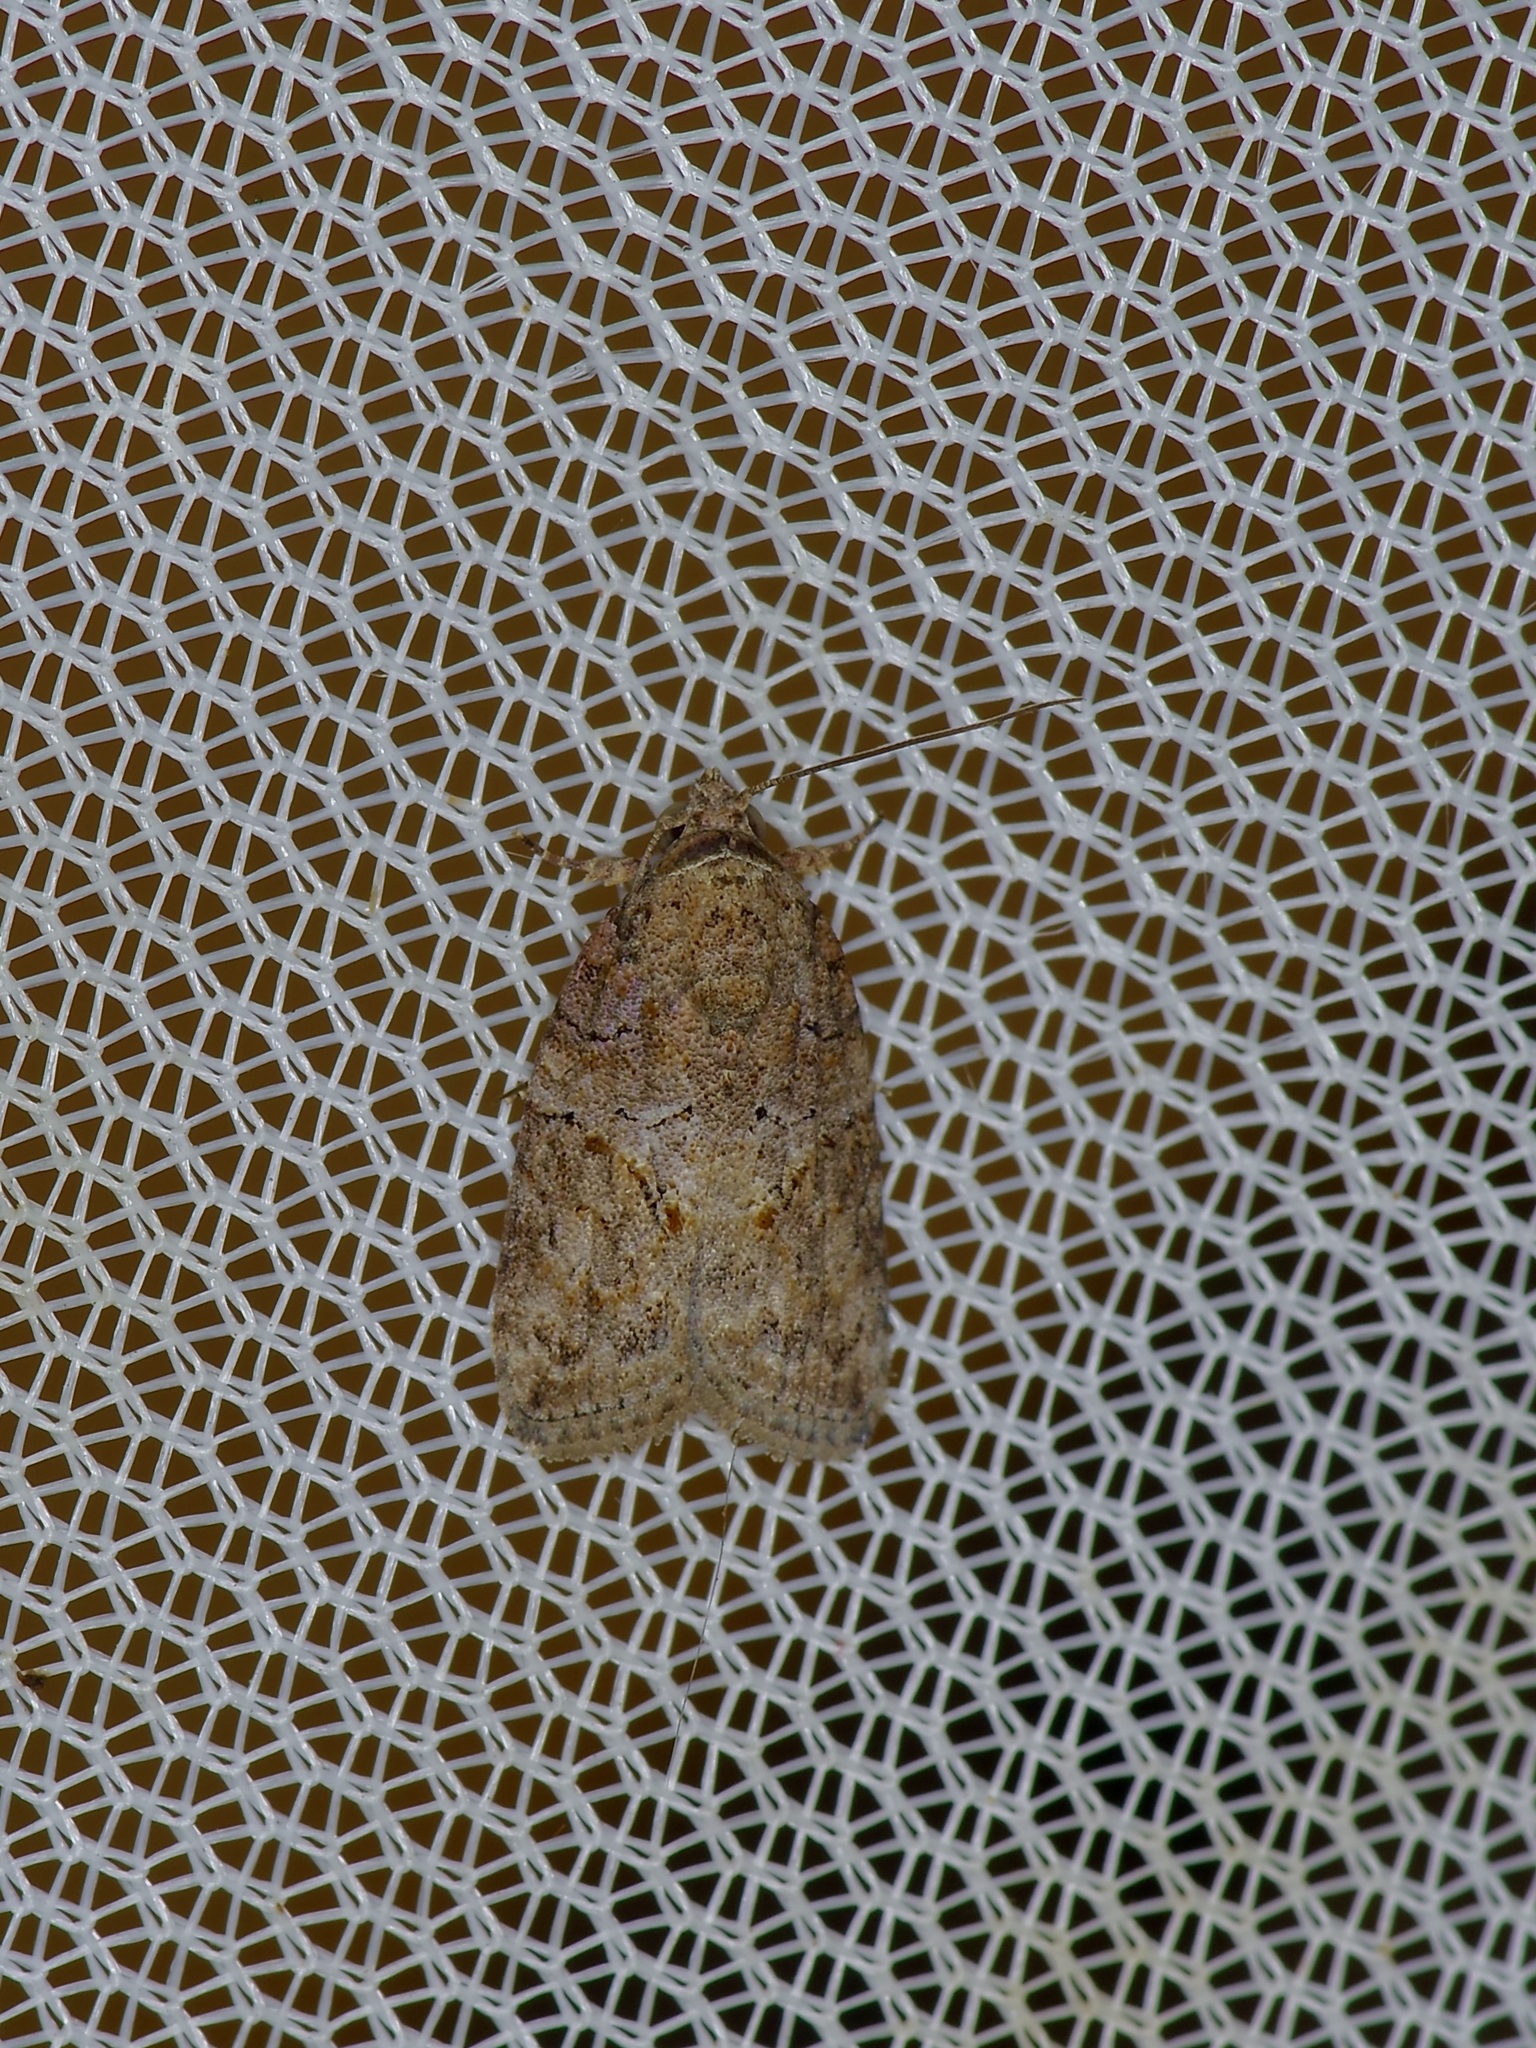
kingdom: Animalia
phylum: Arthropoda
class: Insecta
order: Lepidoptera
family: Nolidae
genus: Garella
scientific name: Garella nilotica
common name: Black-olive caterpillar moth
